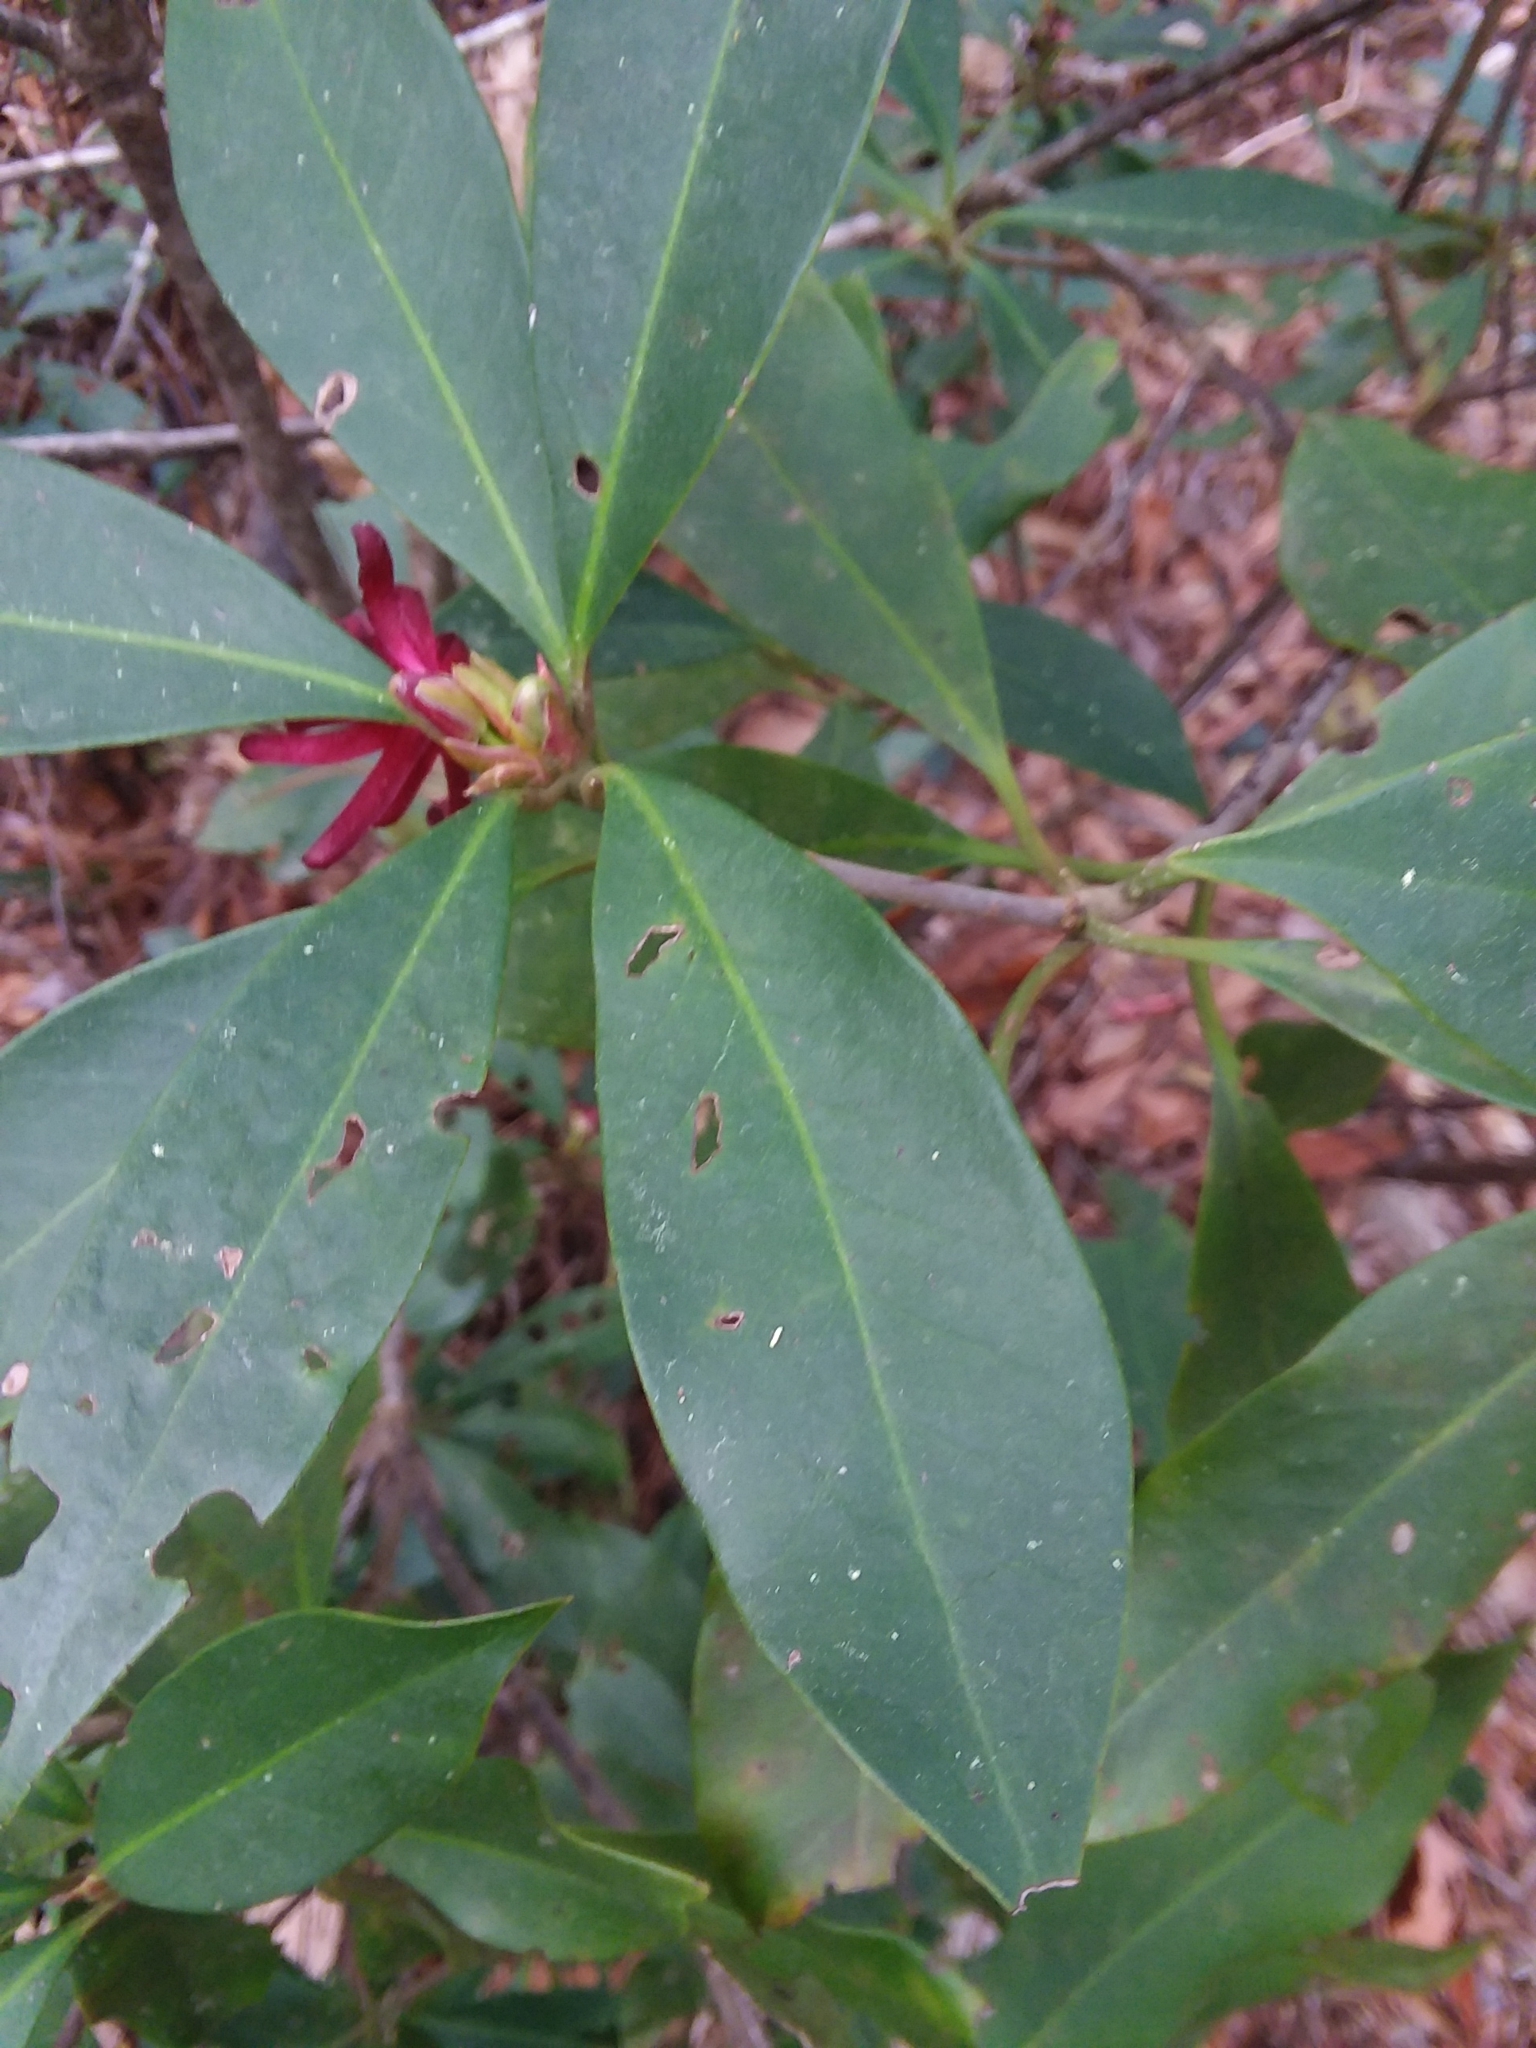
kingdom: Plantae
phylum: Tracheophyta
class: Magnoliopsida
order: Austrobaileyales
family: Schisandraceae
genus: Illicium
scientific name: Illicium floridanum
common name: Florida anisetree
